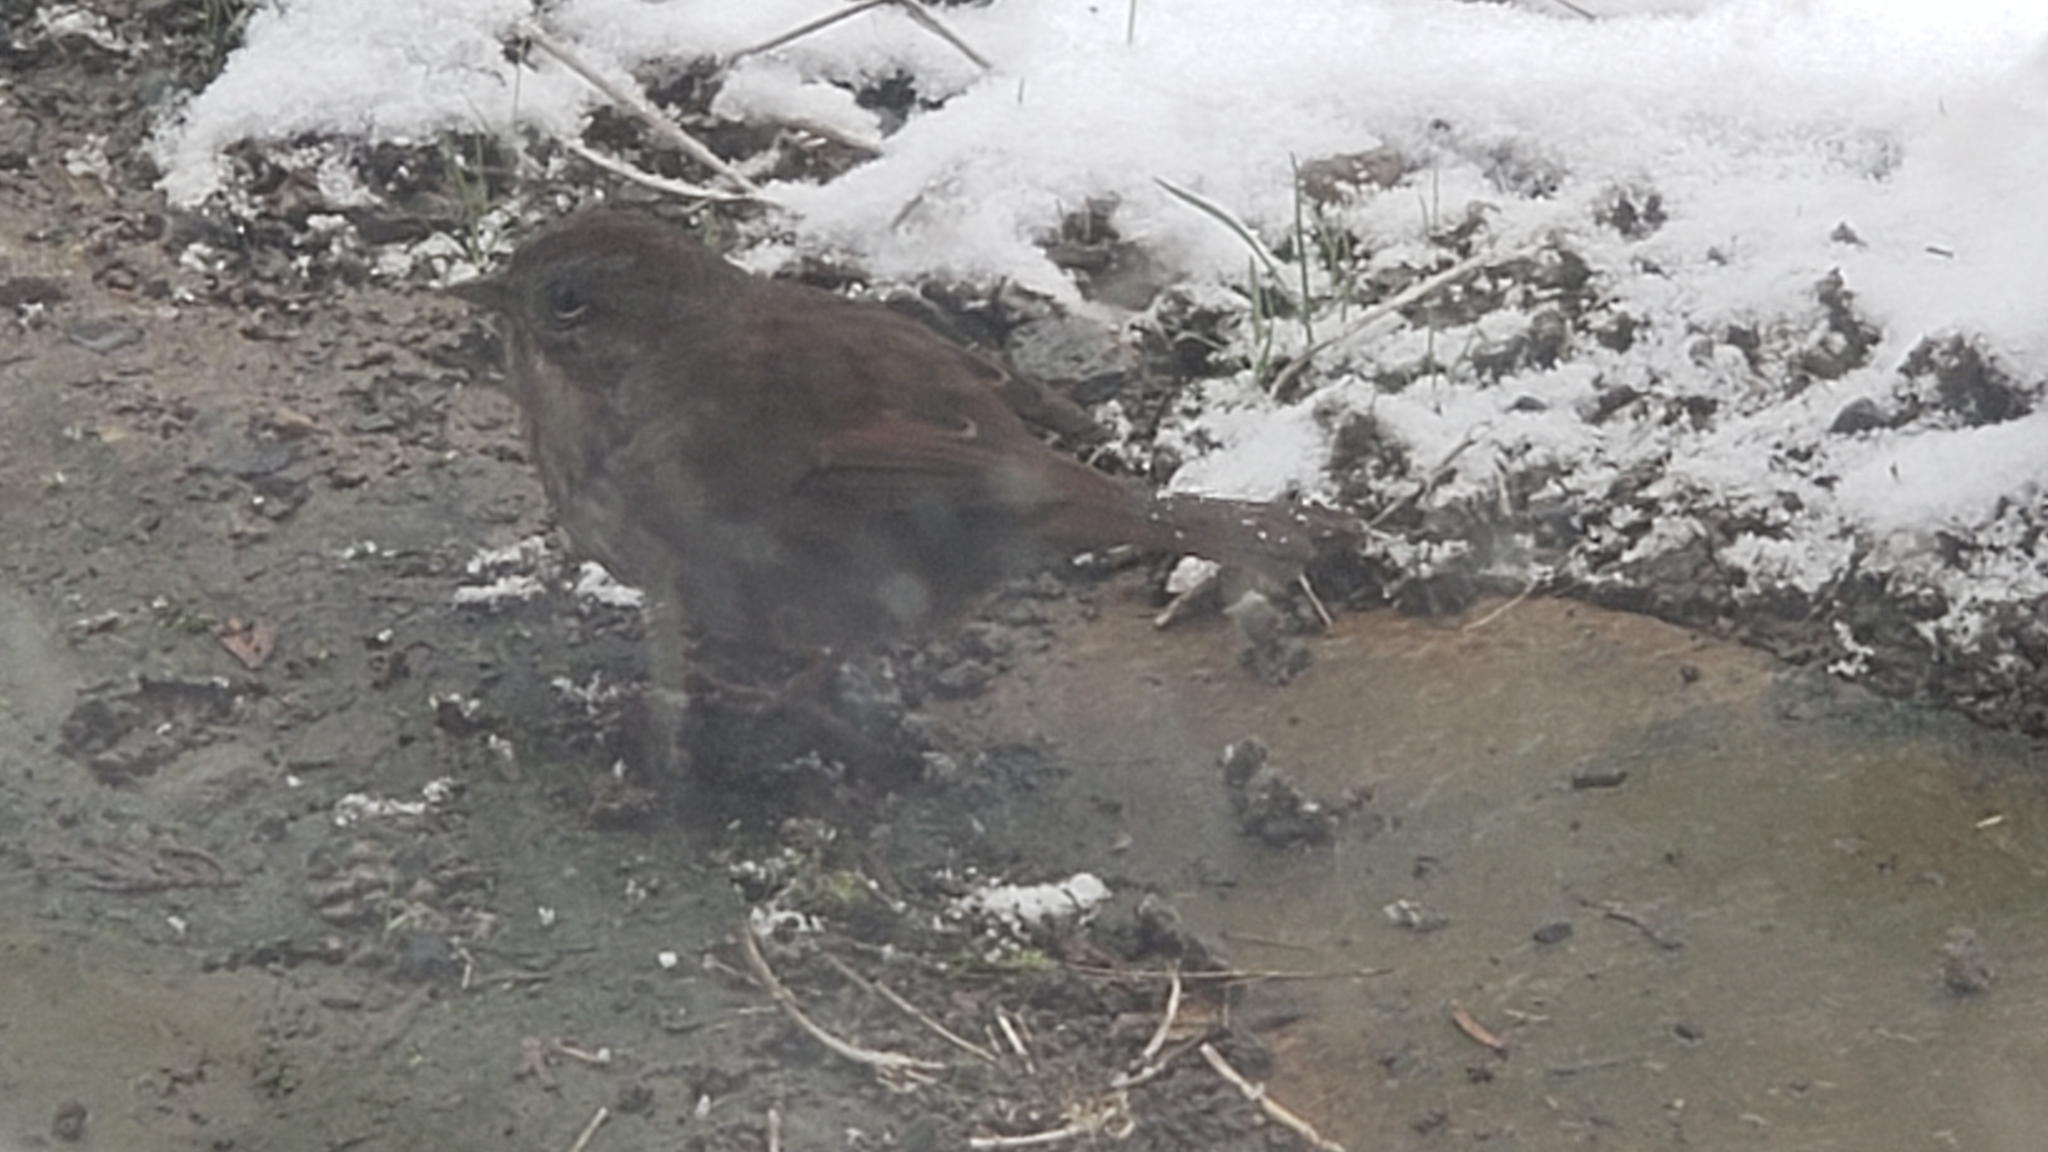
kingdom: Animalia
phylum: Chordata
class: Aves
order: Passeriformes
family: Passerellidae
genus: Melospiza
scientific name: Melospiza melodia
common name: Song sparrow
